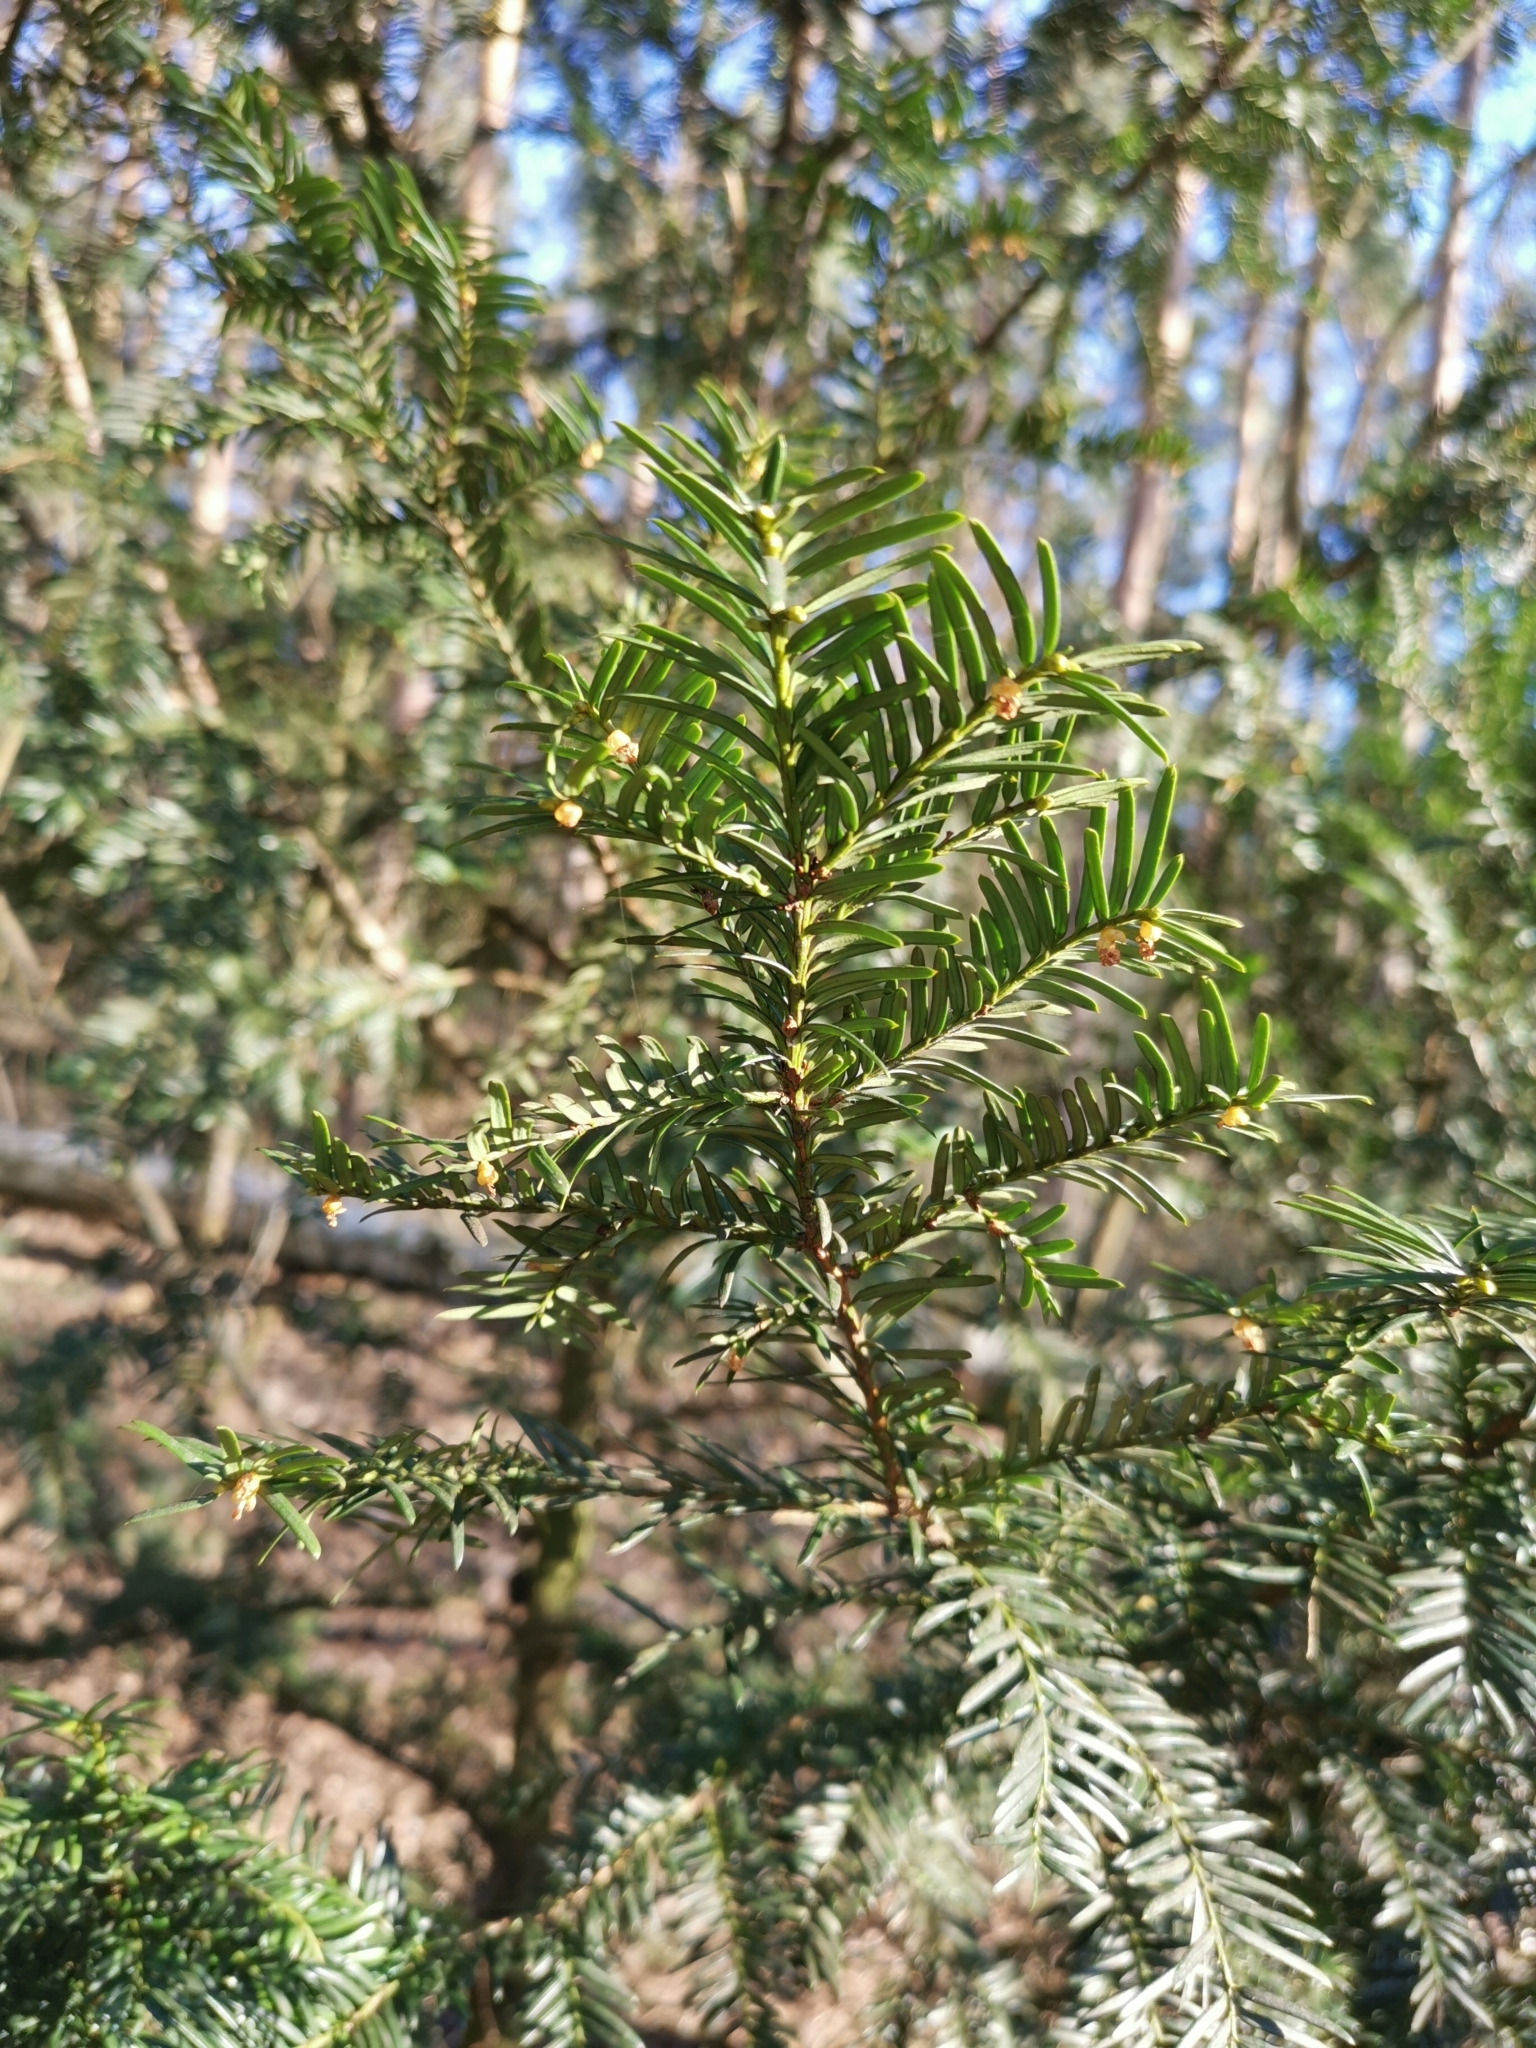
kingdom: Plantae
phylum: Tracheophyta
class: Pinopsida
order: Pinales
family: Taxaceae
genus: Taxus
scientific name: Taxus baccata
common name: Yew
